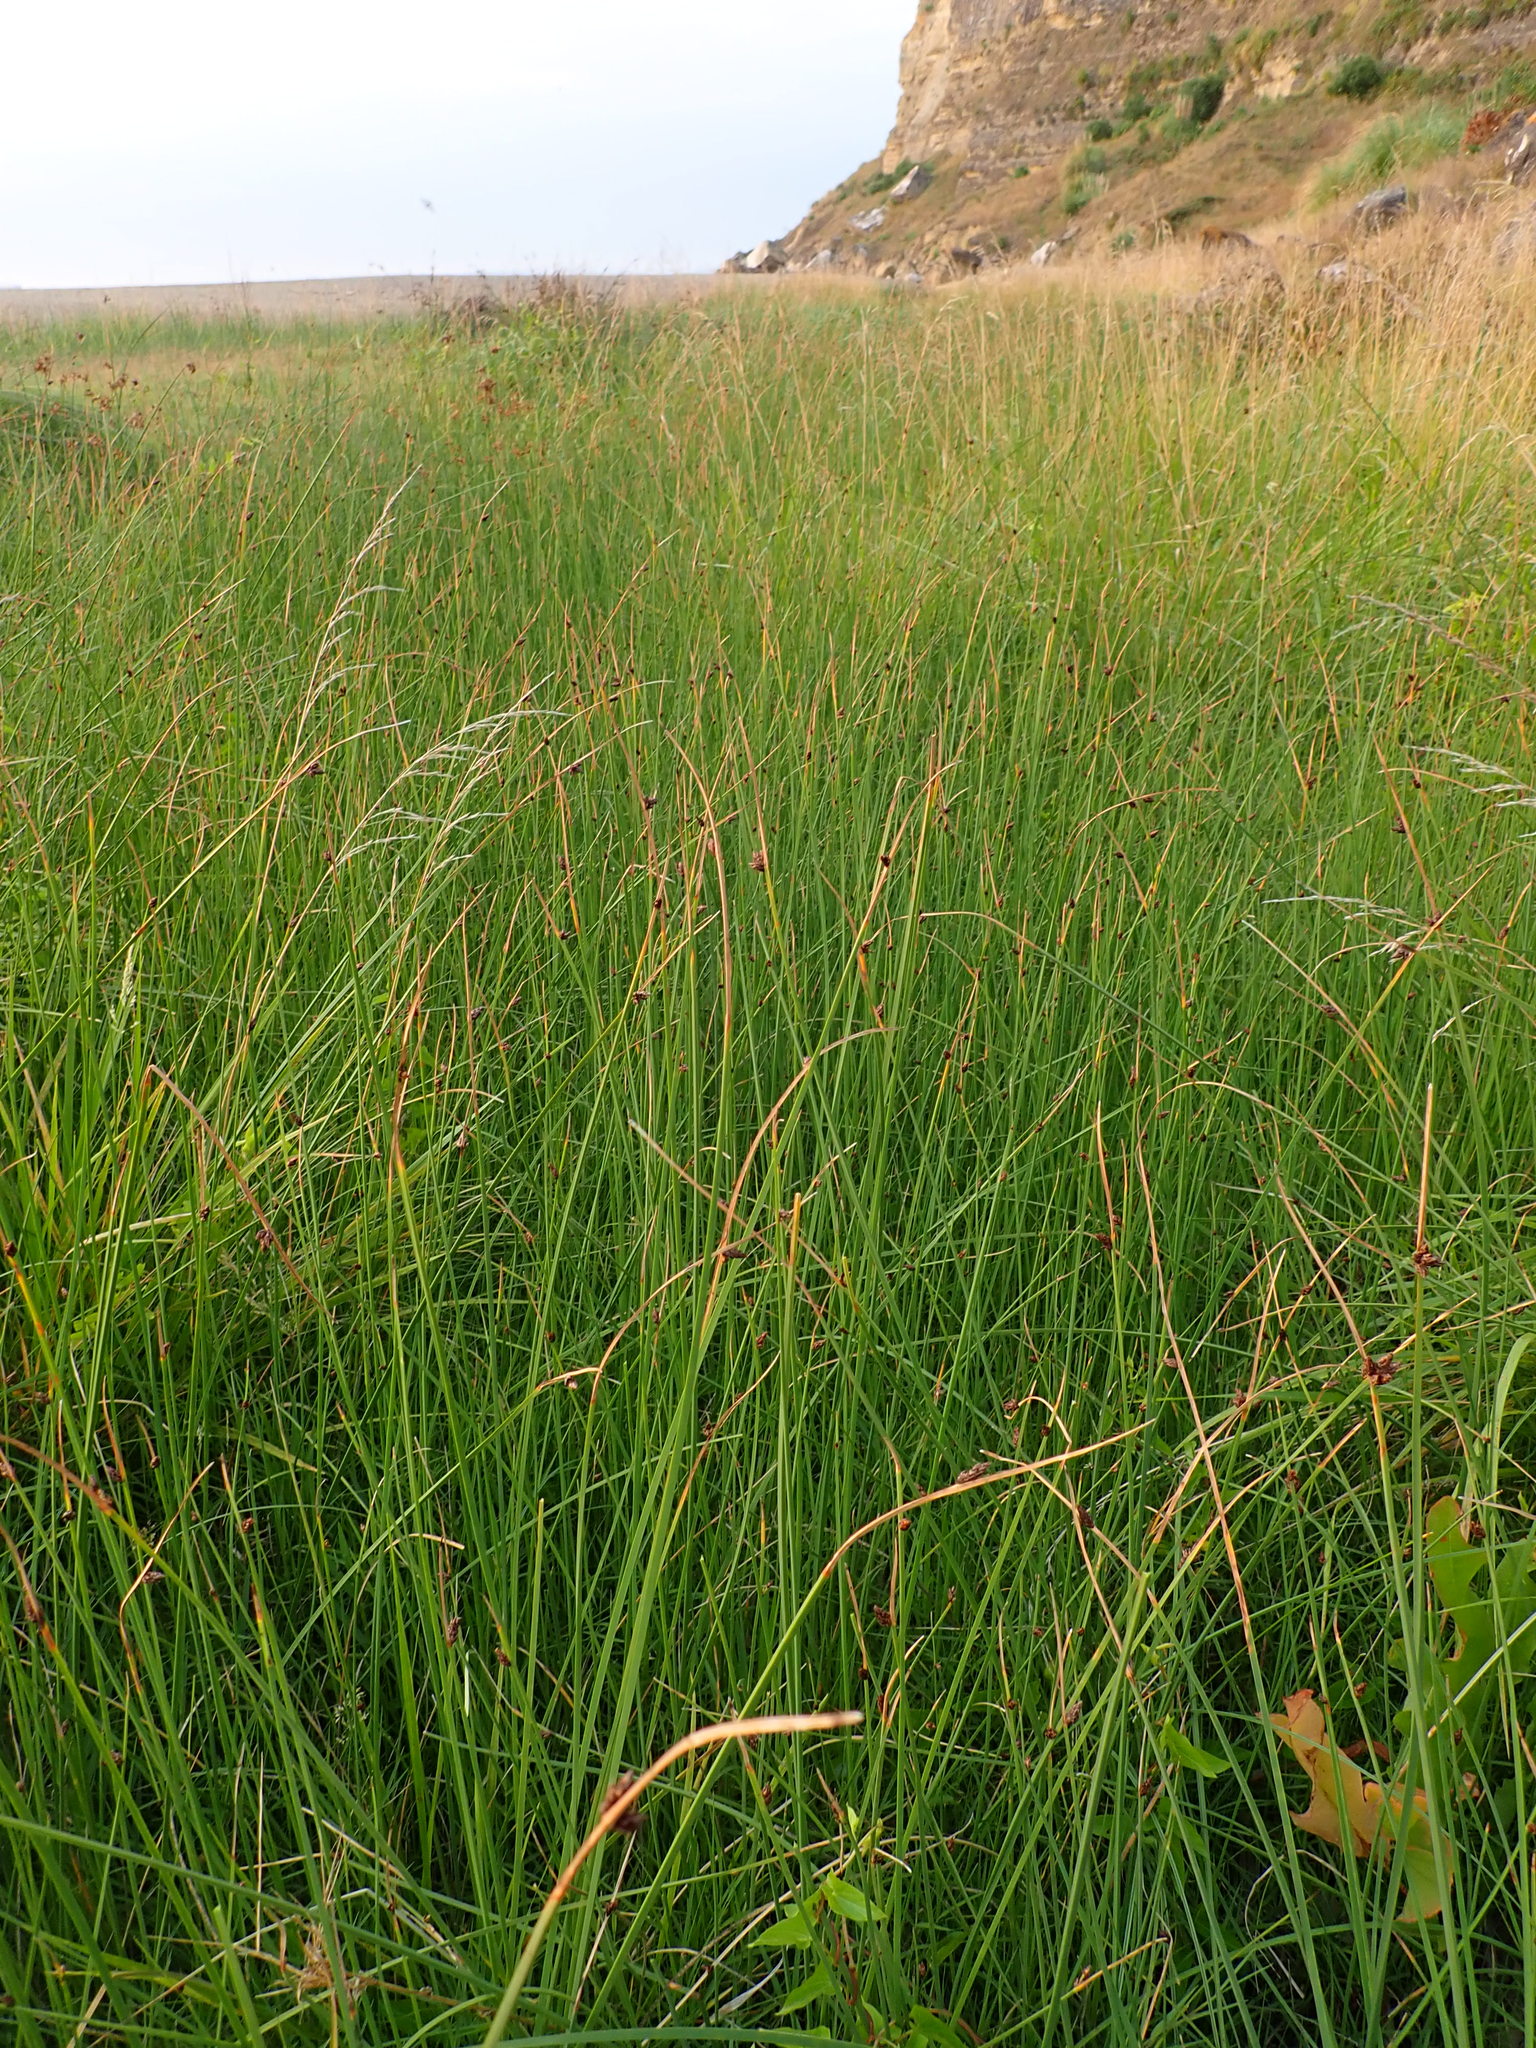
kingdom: Plantae
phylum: Tracheophyta
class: Liliopsida
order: Poales
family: Cyperaceae
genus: Schoenoplectus
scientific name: Schoenoplectus pungens
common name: Sharp club-rush
